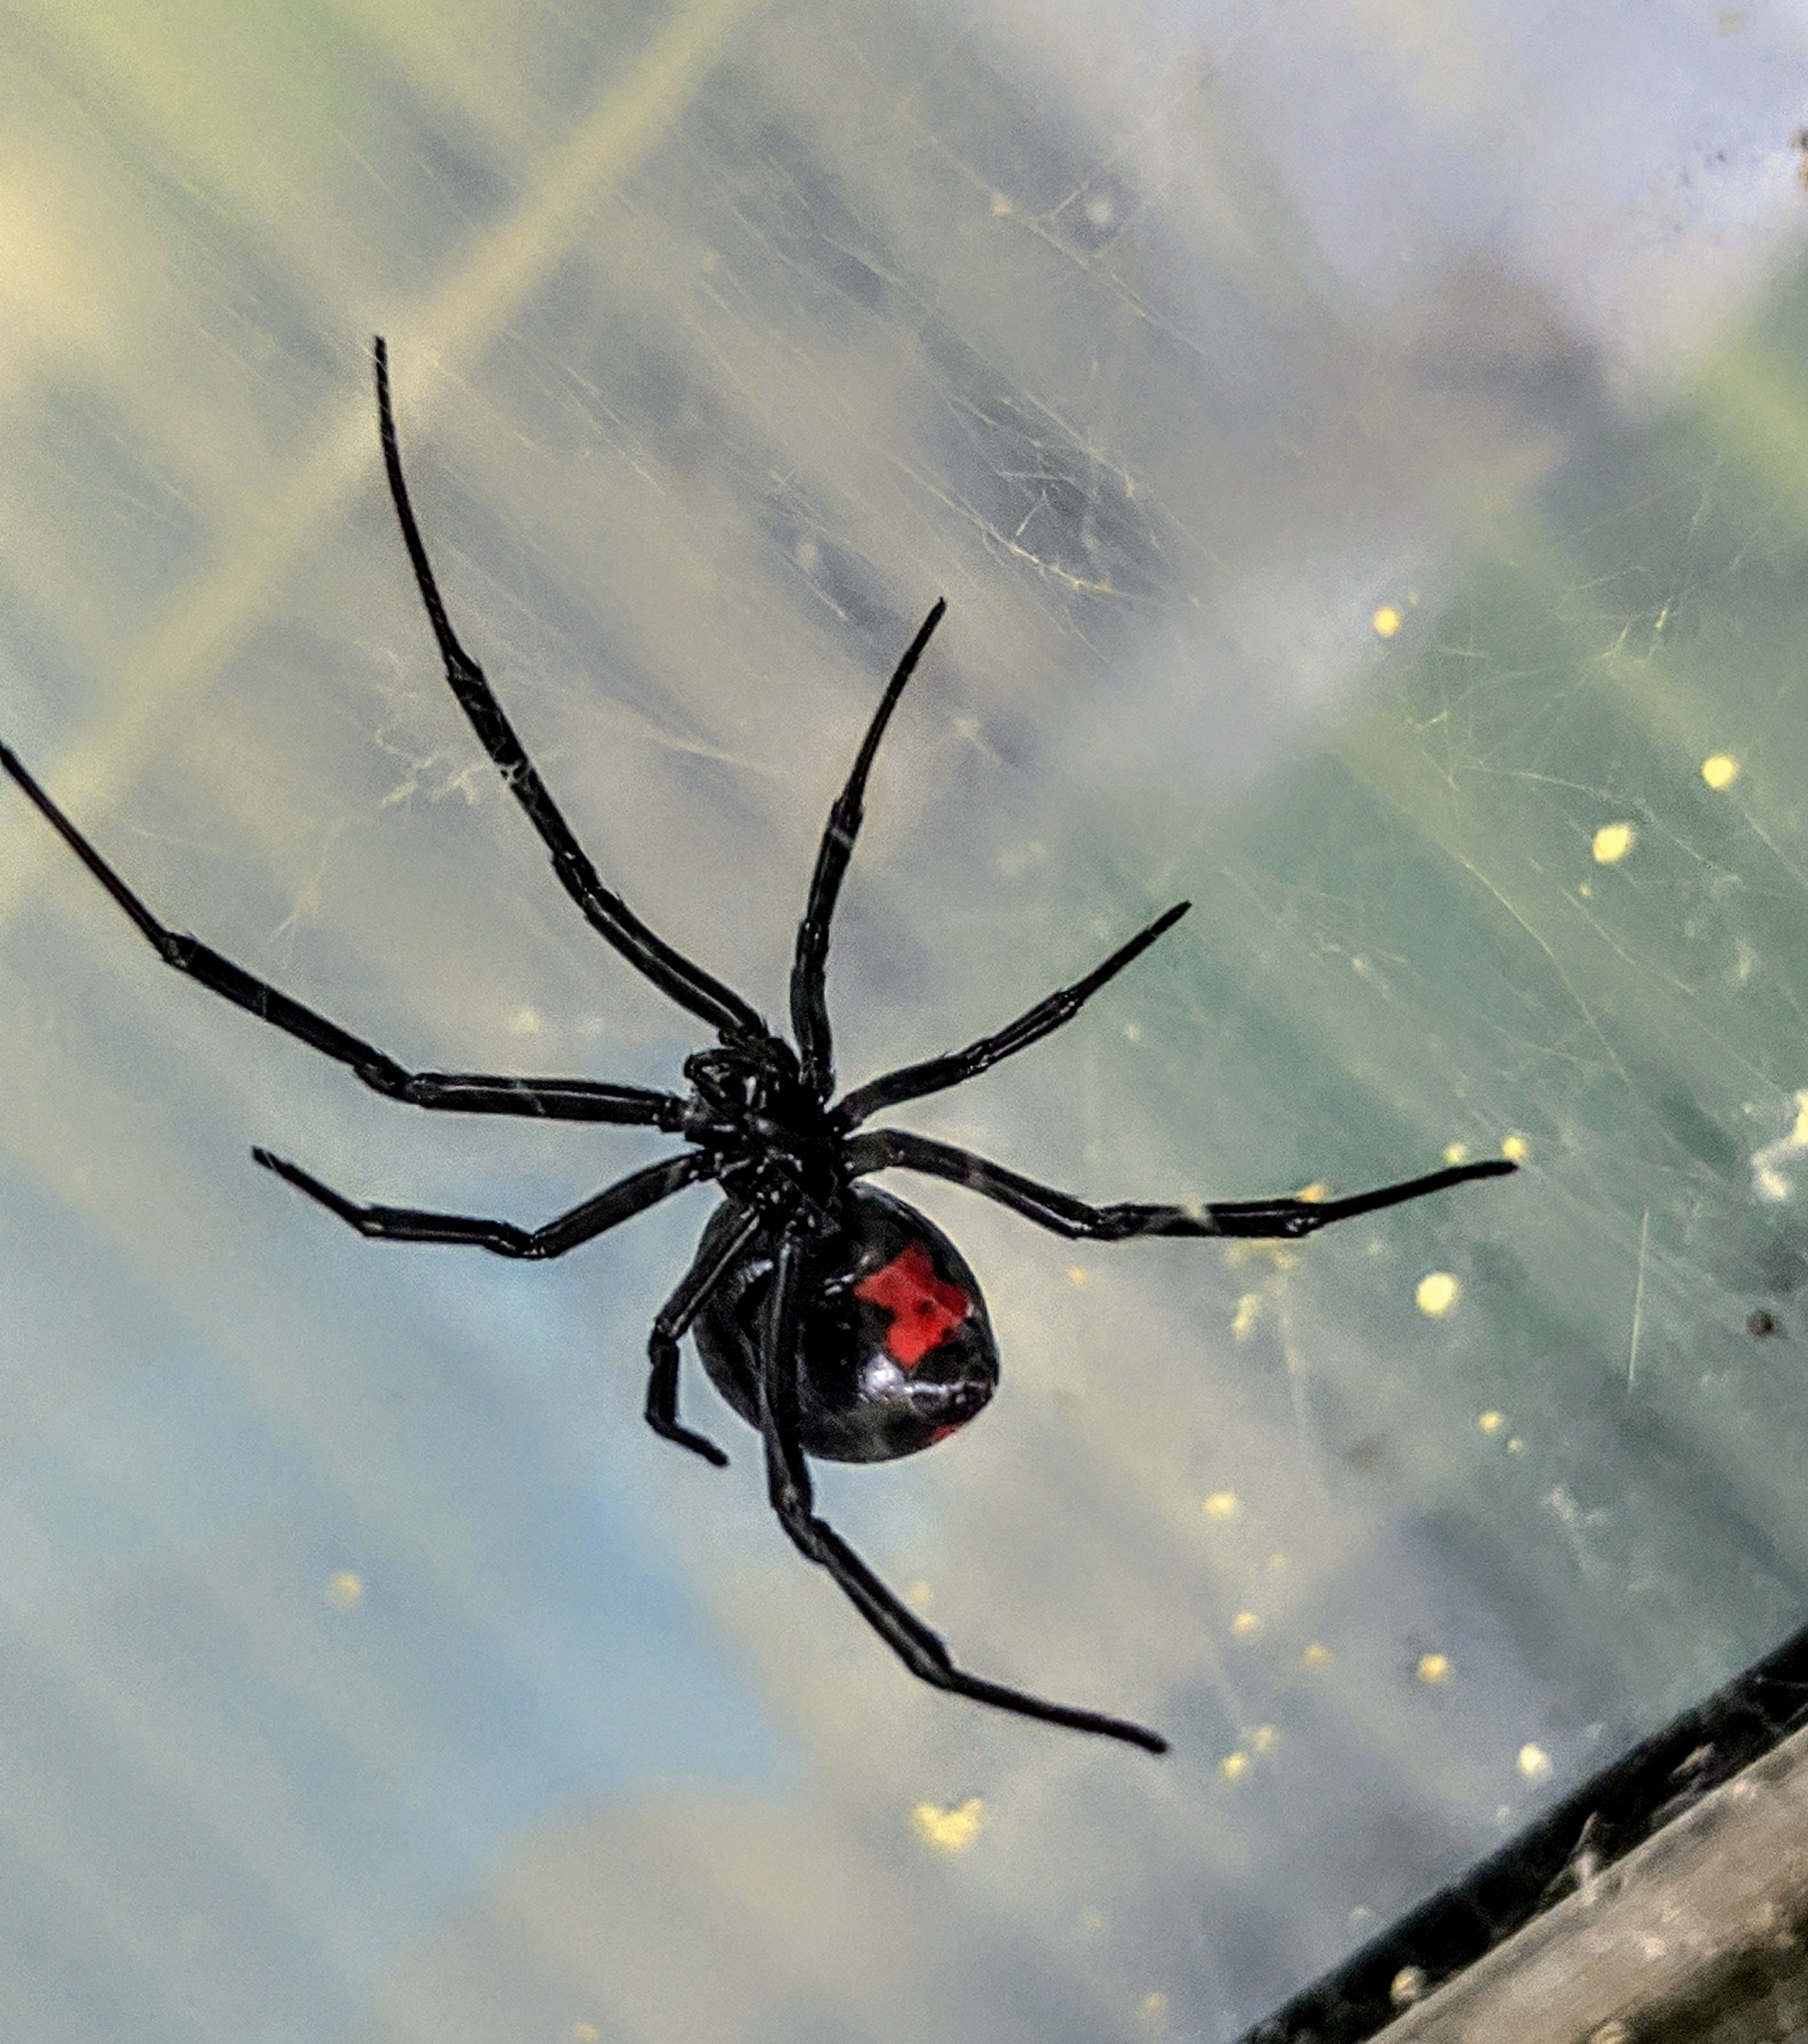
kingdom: Animalia
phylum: Arthropoda
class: Arachnida
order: Araneae
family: Theridiidae
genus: Latrodectus
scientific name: Latrodectus mactans
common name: Cobweb spiders
